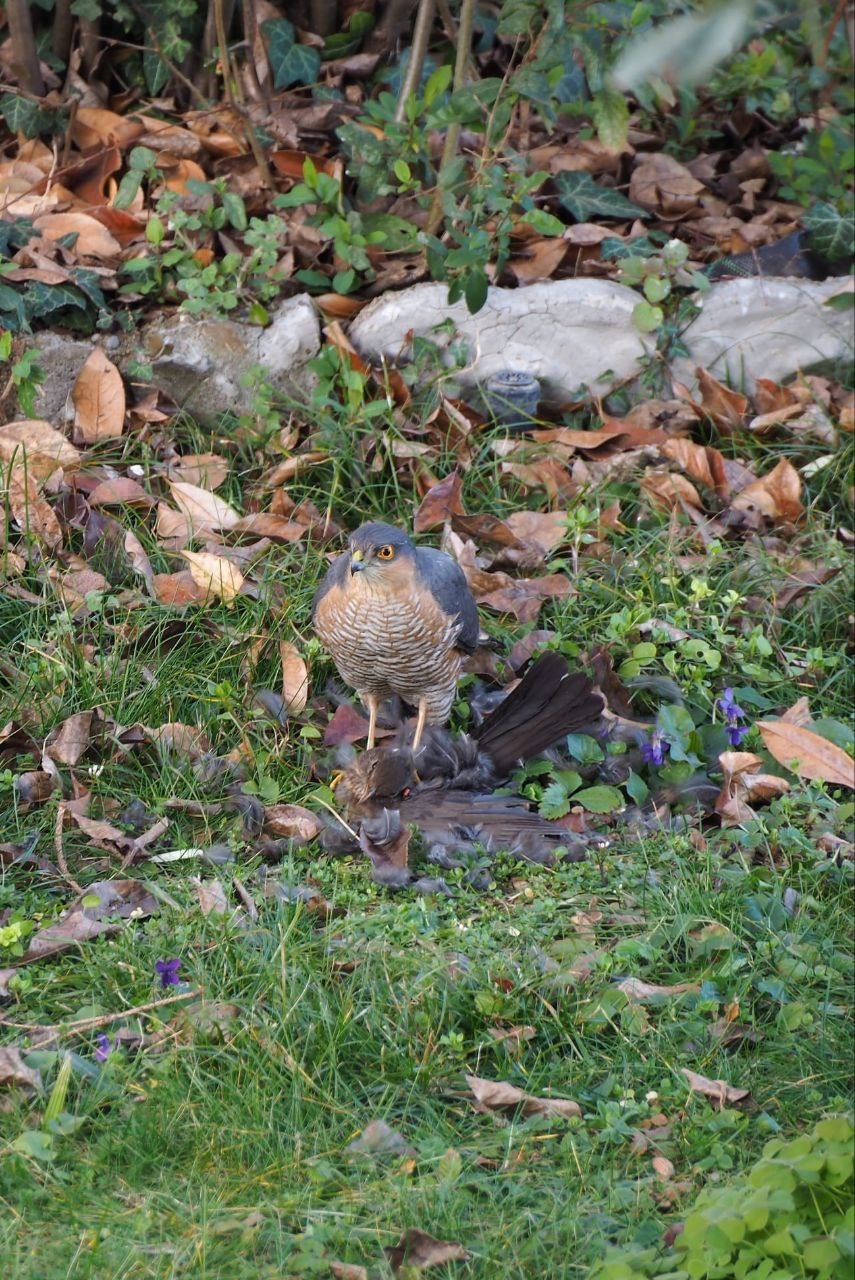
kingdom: Animalia
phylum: Chordata
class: Aves
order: Accipitriformes
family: Accipitridae
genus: Accipiter
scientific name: Accipiter nisus
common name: Eurasian sparrowhawk
